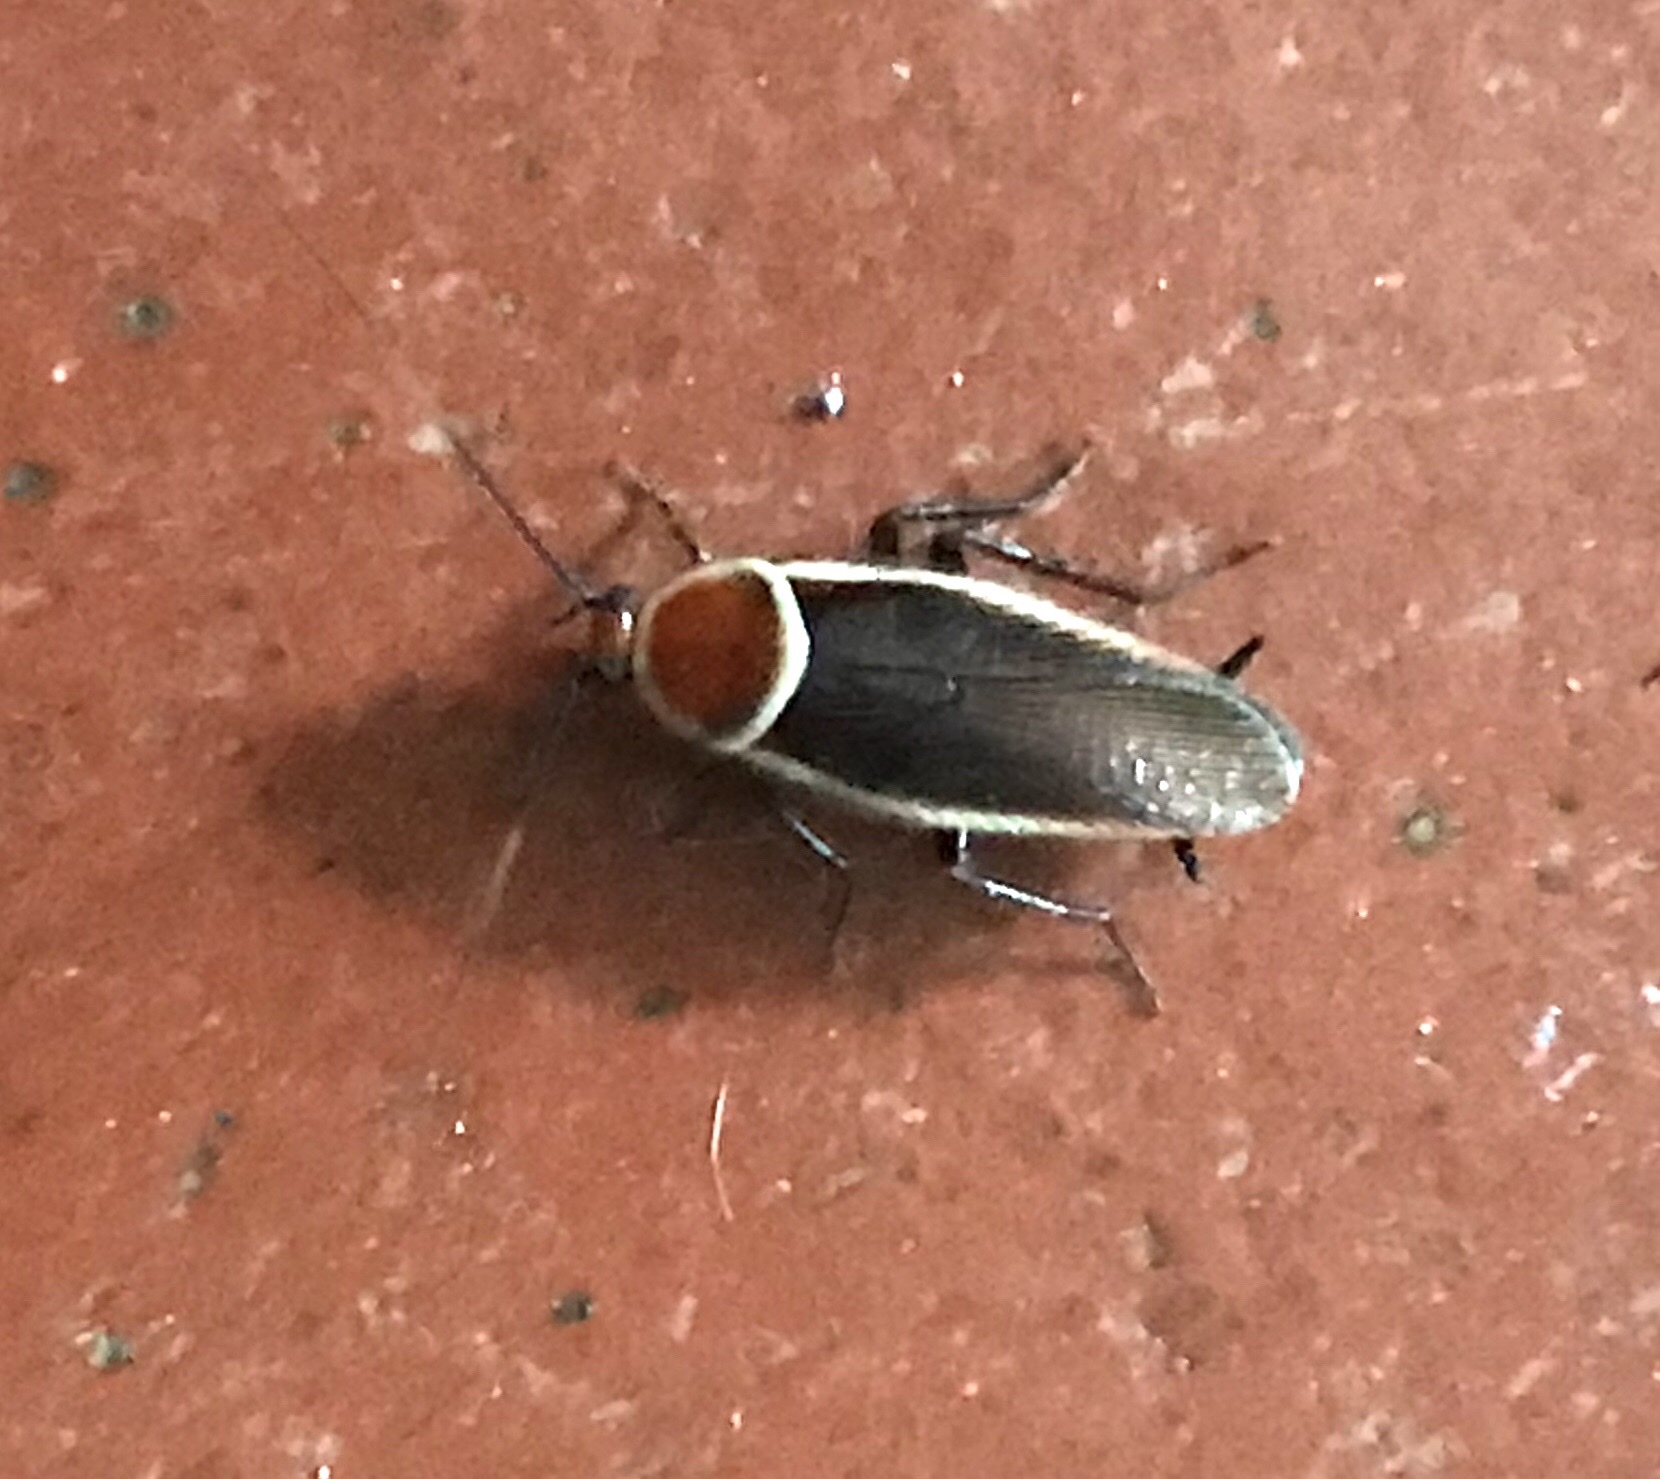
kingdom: Animalia
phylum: Arthropoda
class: Insecta
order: Blattodea
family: Ectobiidae
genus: Pseudomops
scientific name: Pseudomops septentrionalis
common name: Pale-bordered field cockroach
